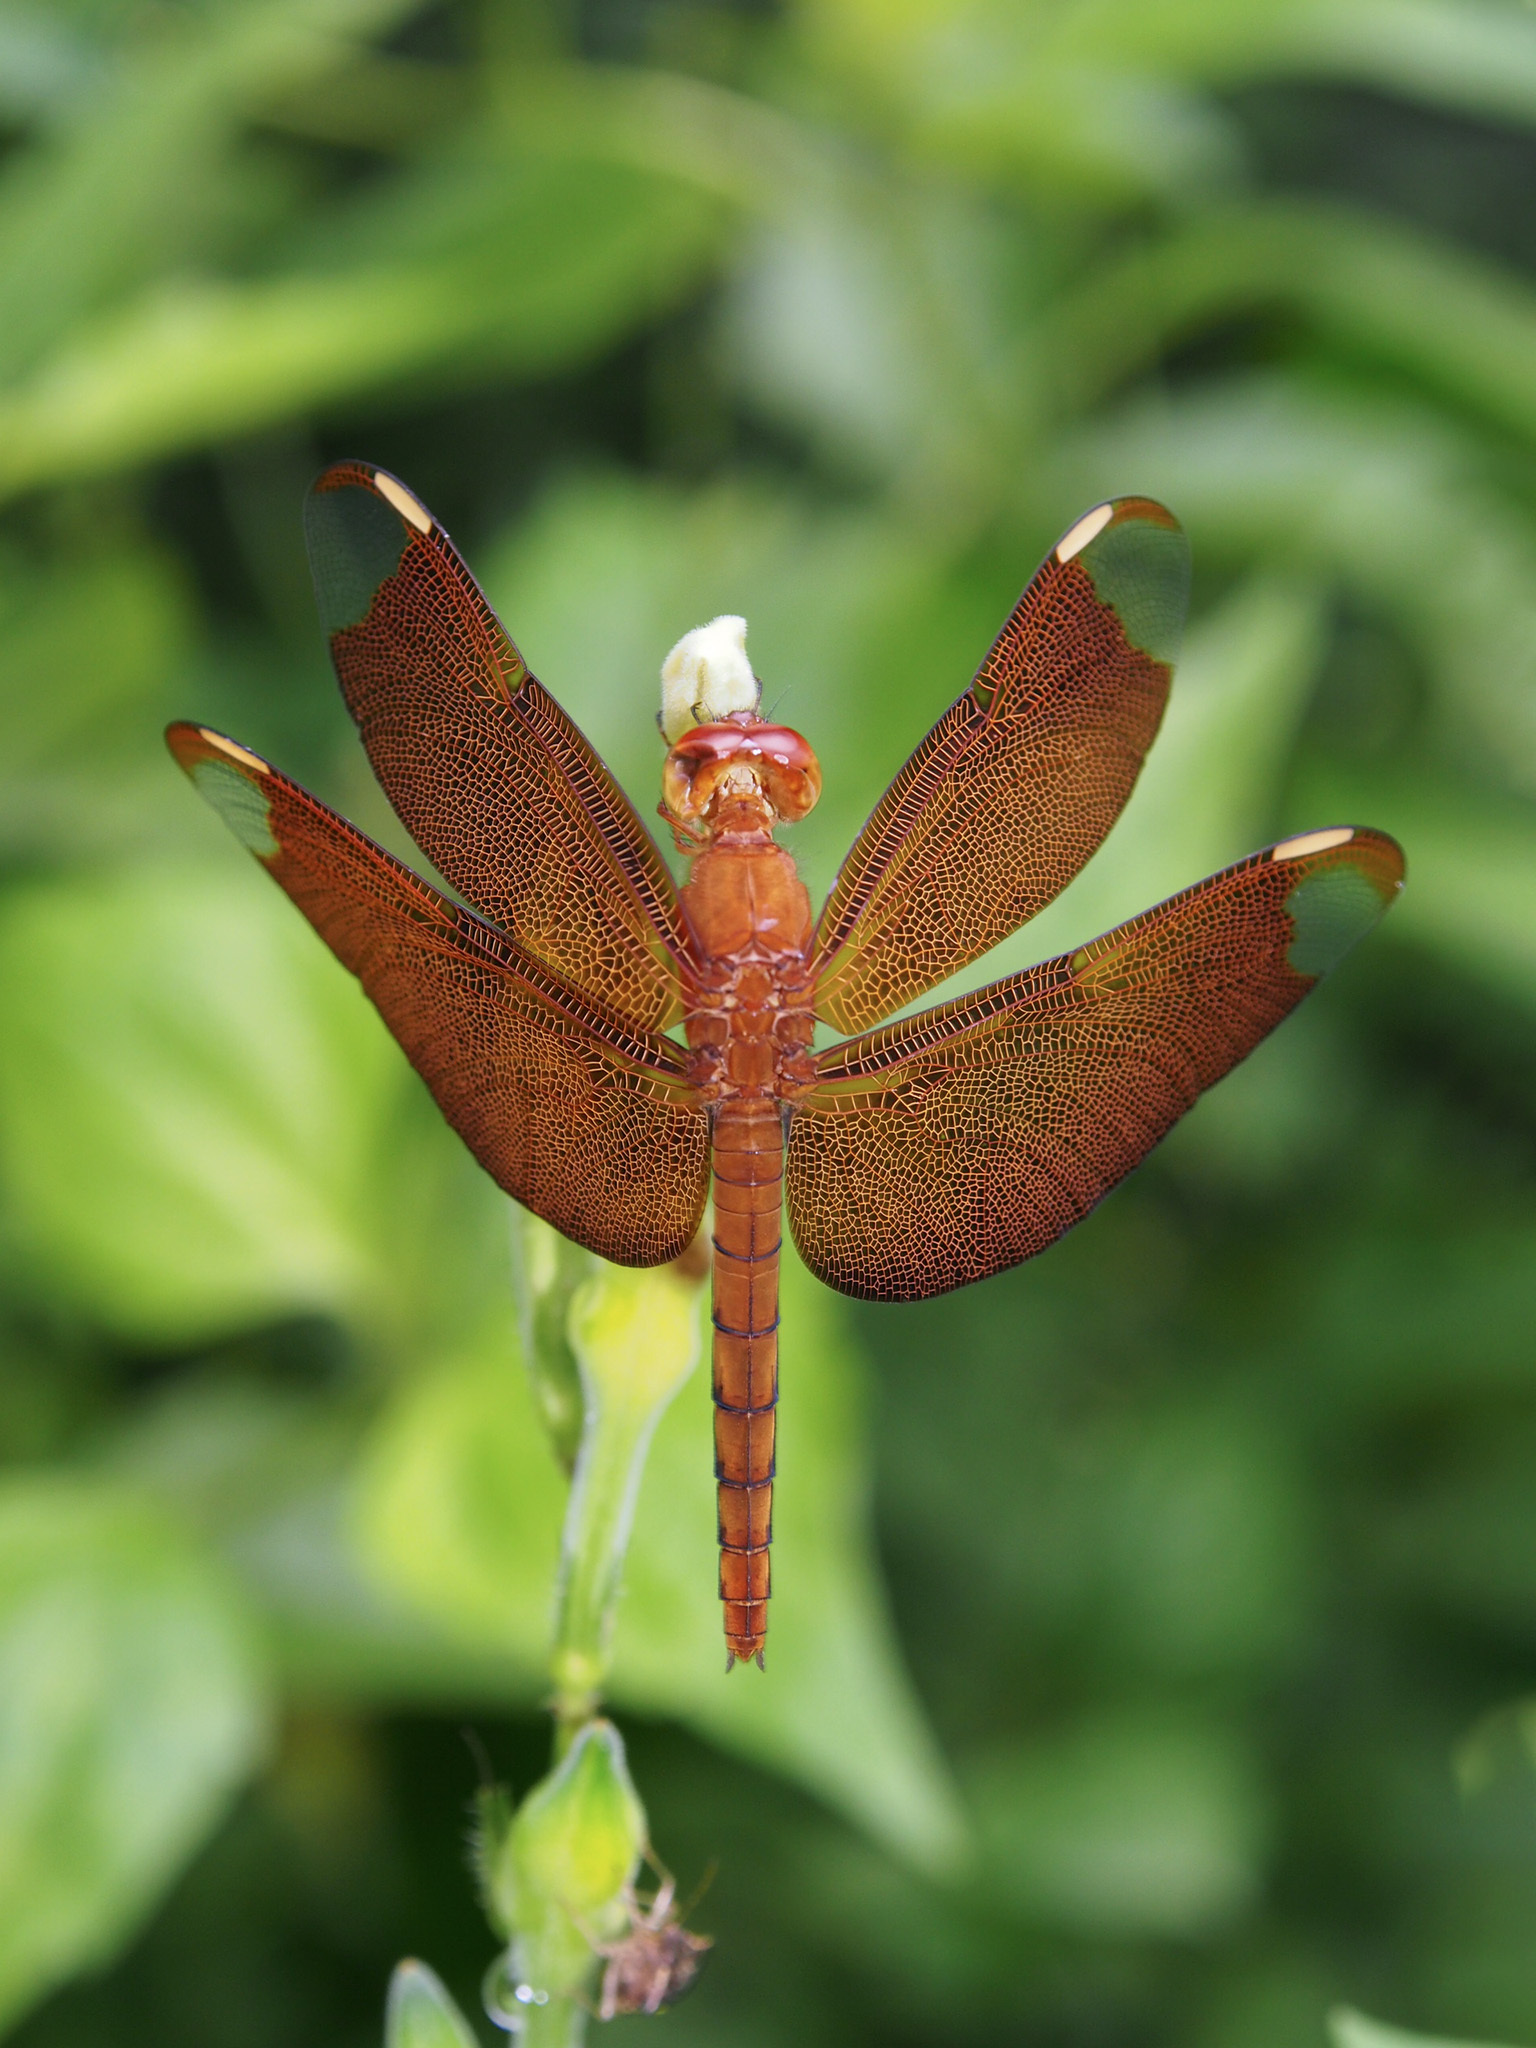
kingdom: Animalia
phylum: Arthropoda
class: Insecta
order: Odonata
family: Libellulidae
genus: Neurothemis
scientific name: Neurothemis fulvia
